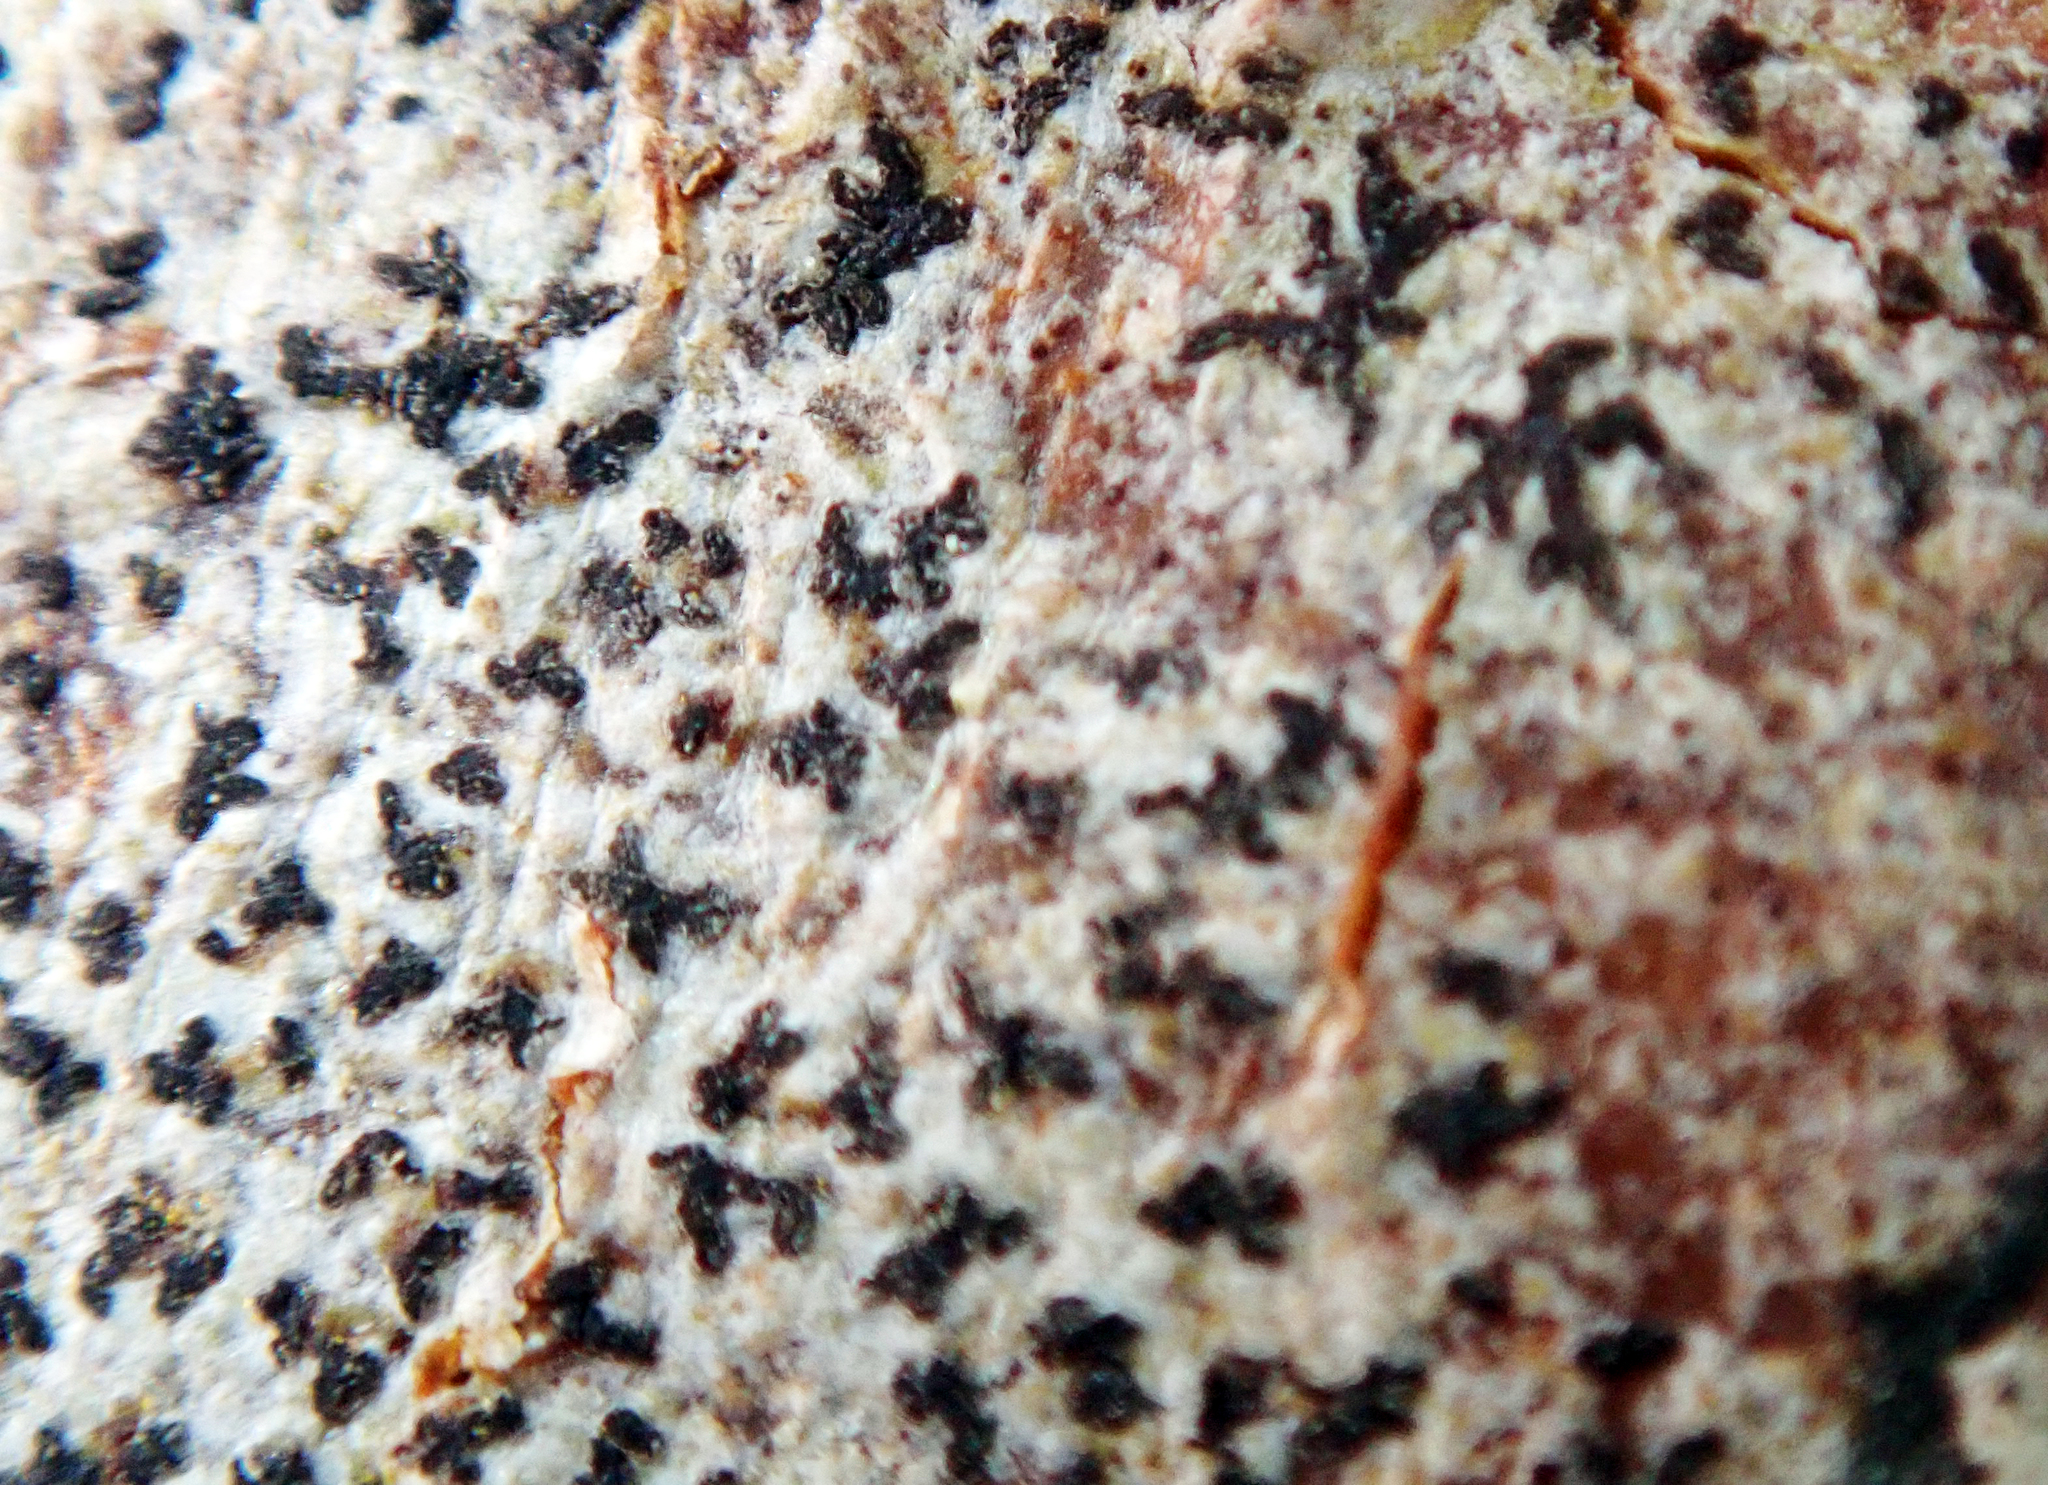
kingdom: Fungi
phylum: Ascomycota
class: Arthoniomycetes
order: Arthoniales
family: Arthoniaceae
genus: Arthonia
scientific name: Arthonia radiata
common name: Asterisk lichen
